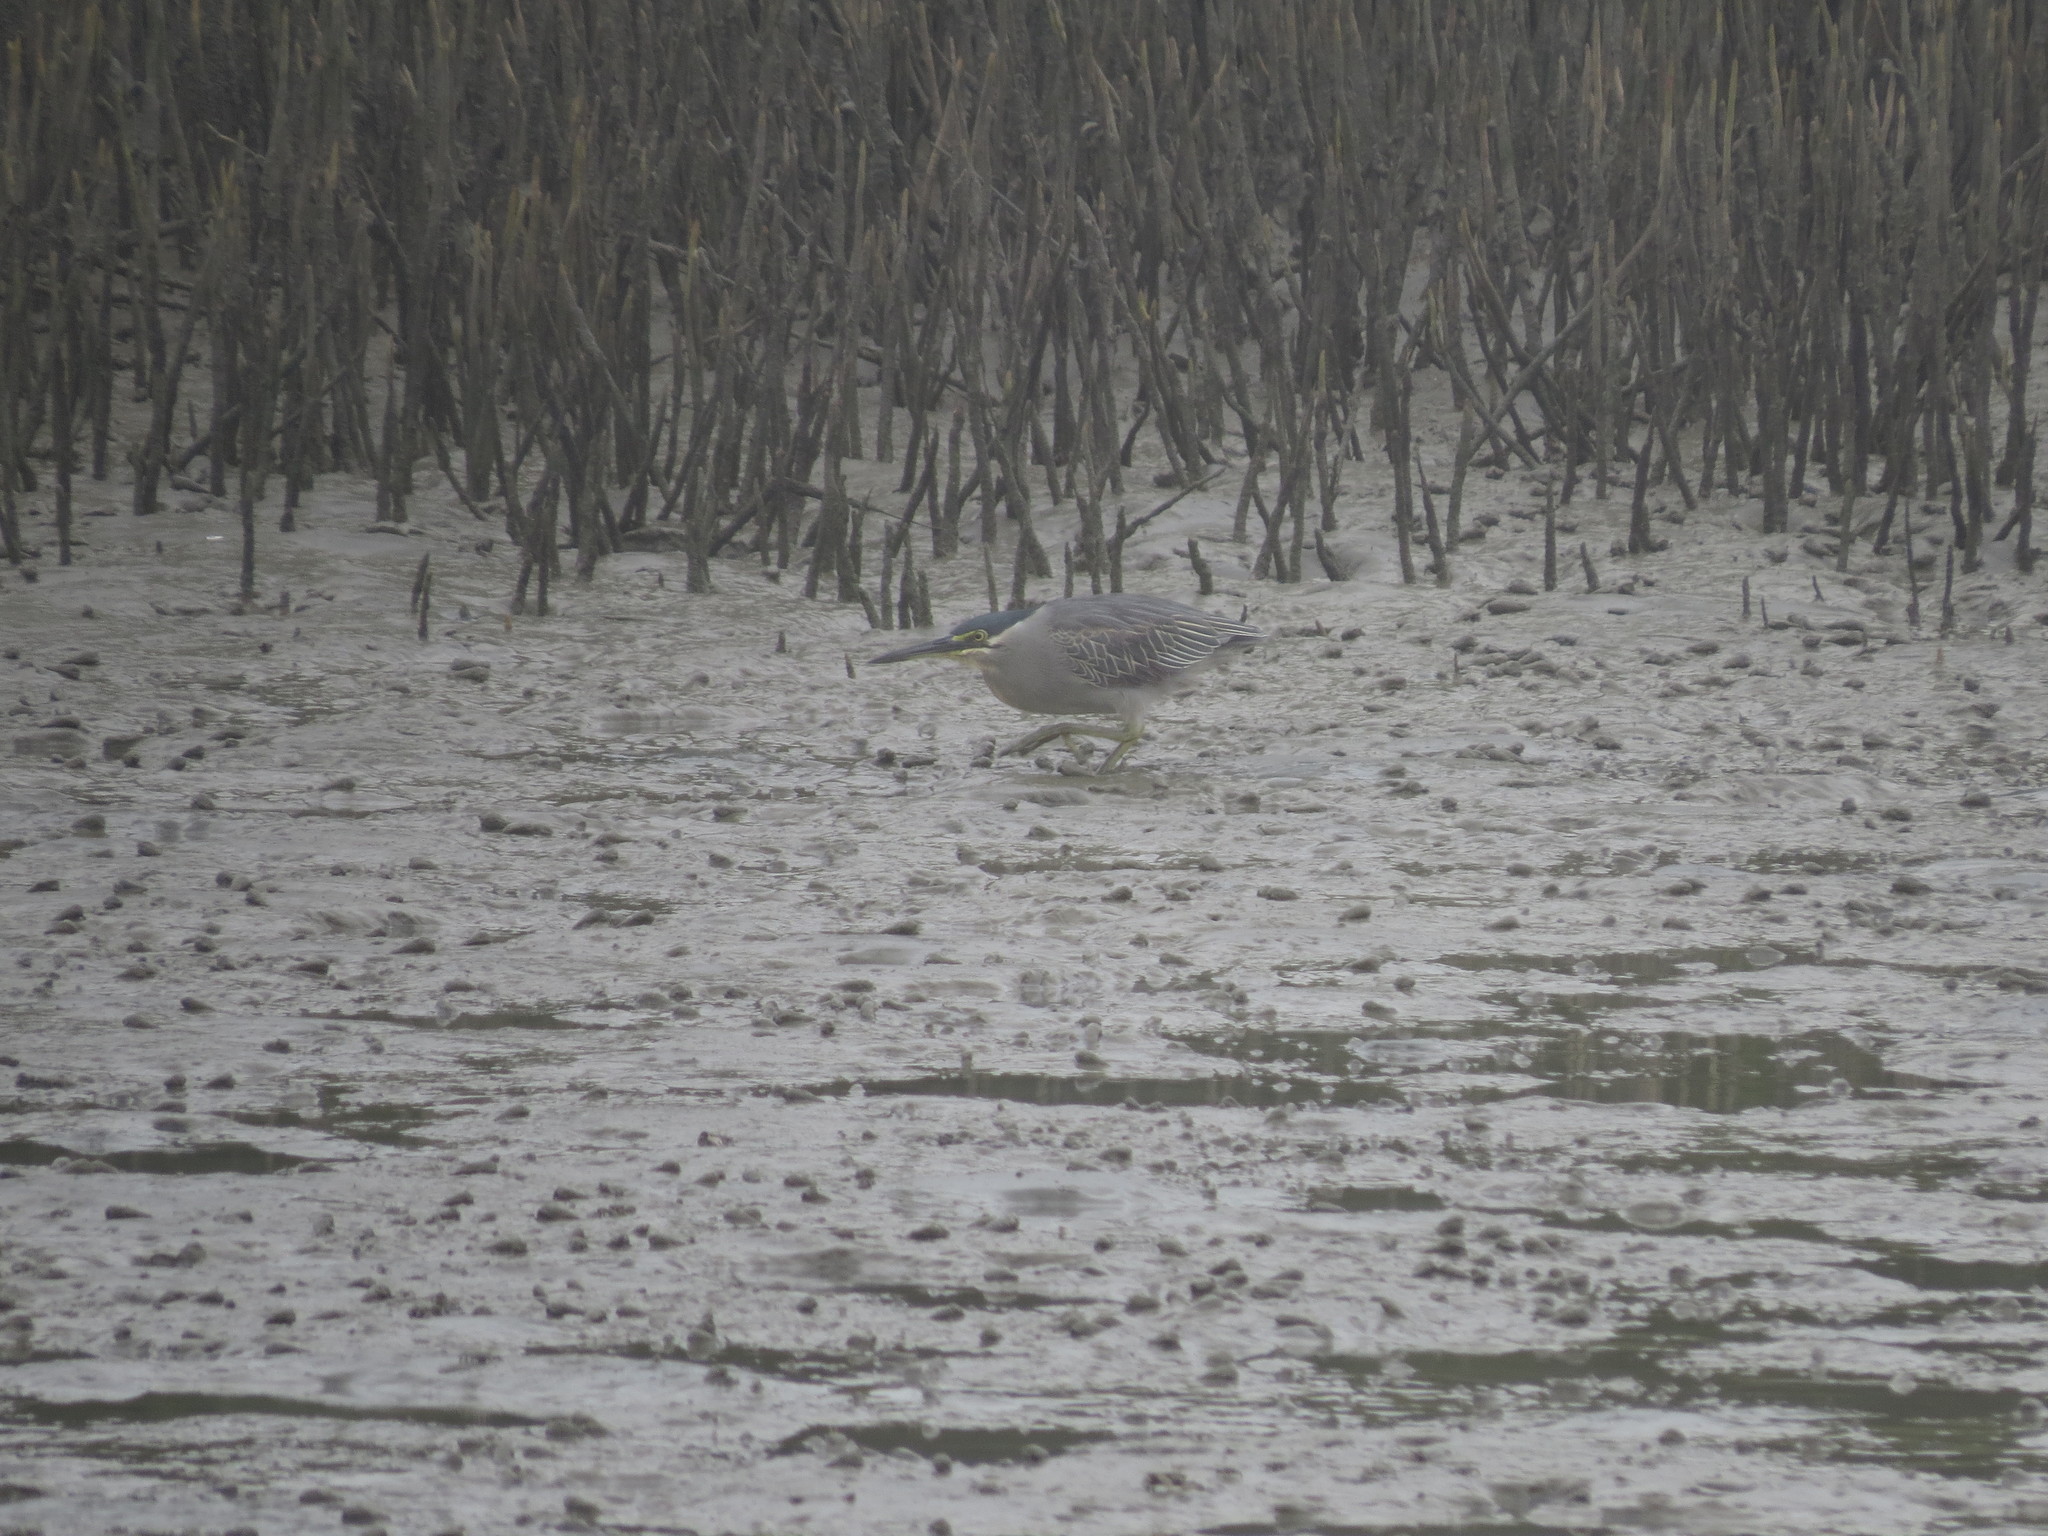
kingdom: Animalia
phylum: Chordata
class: Aves
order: Pelecaniformes
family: Ardeidae
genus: Butorides
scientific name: Butorides striata
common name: Striated heron
